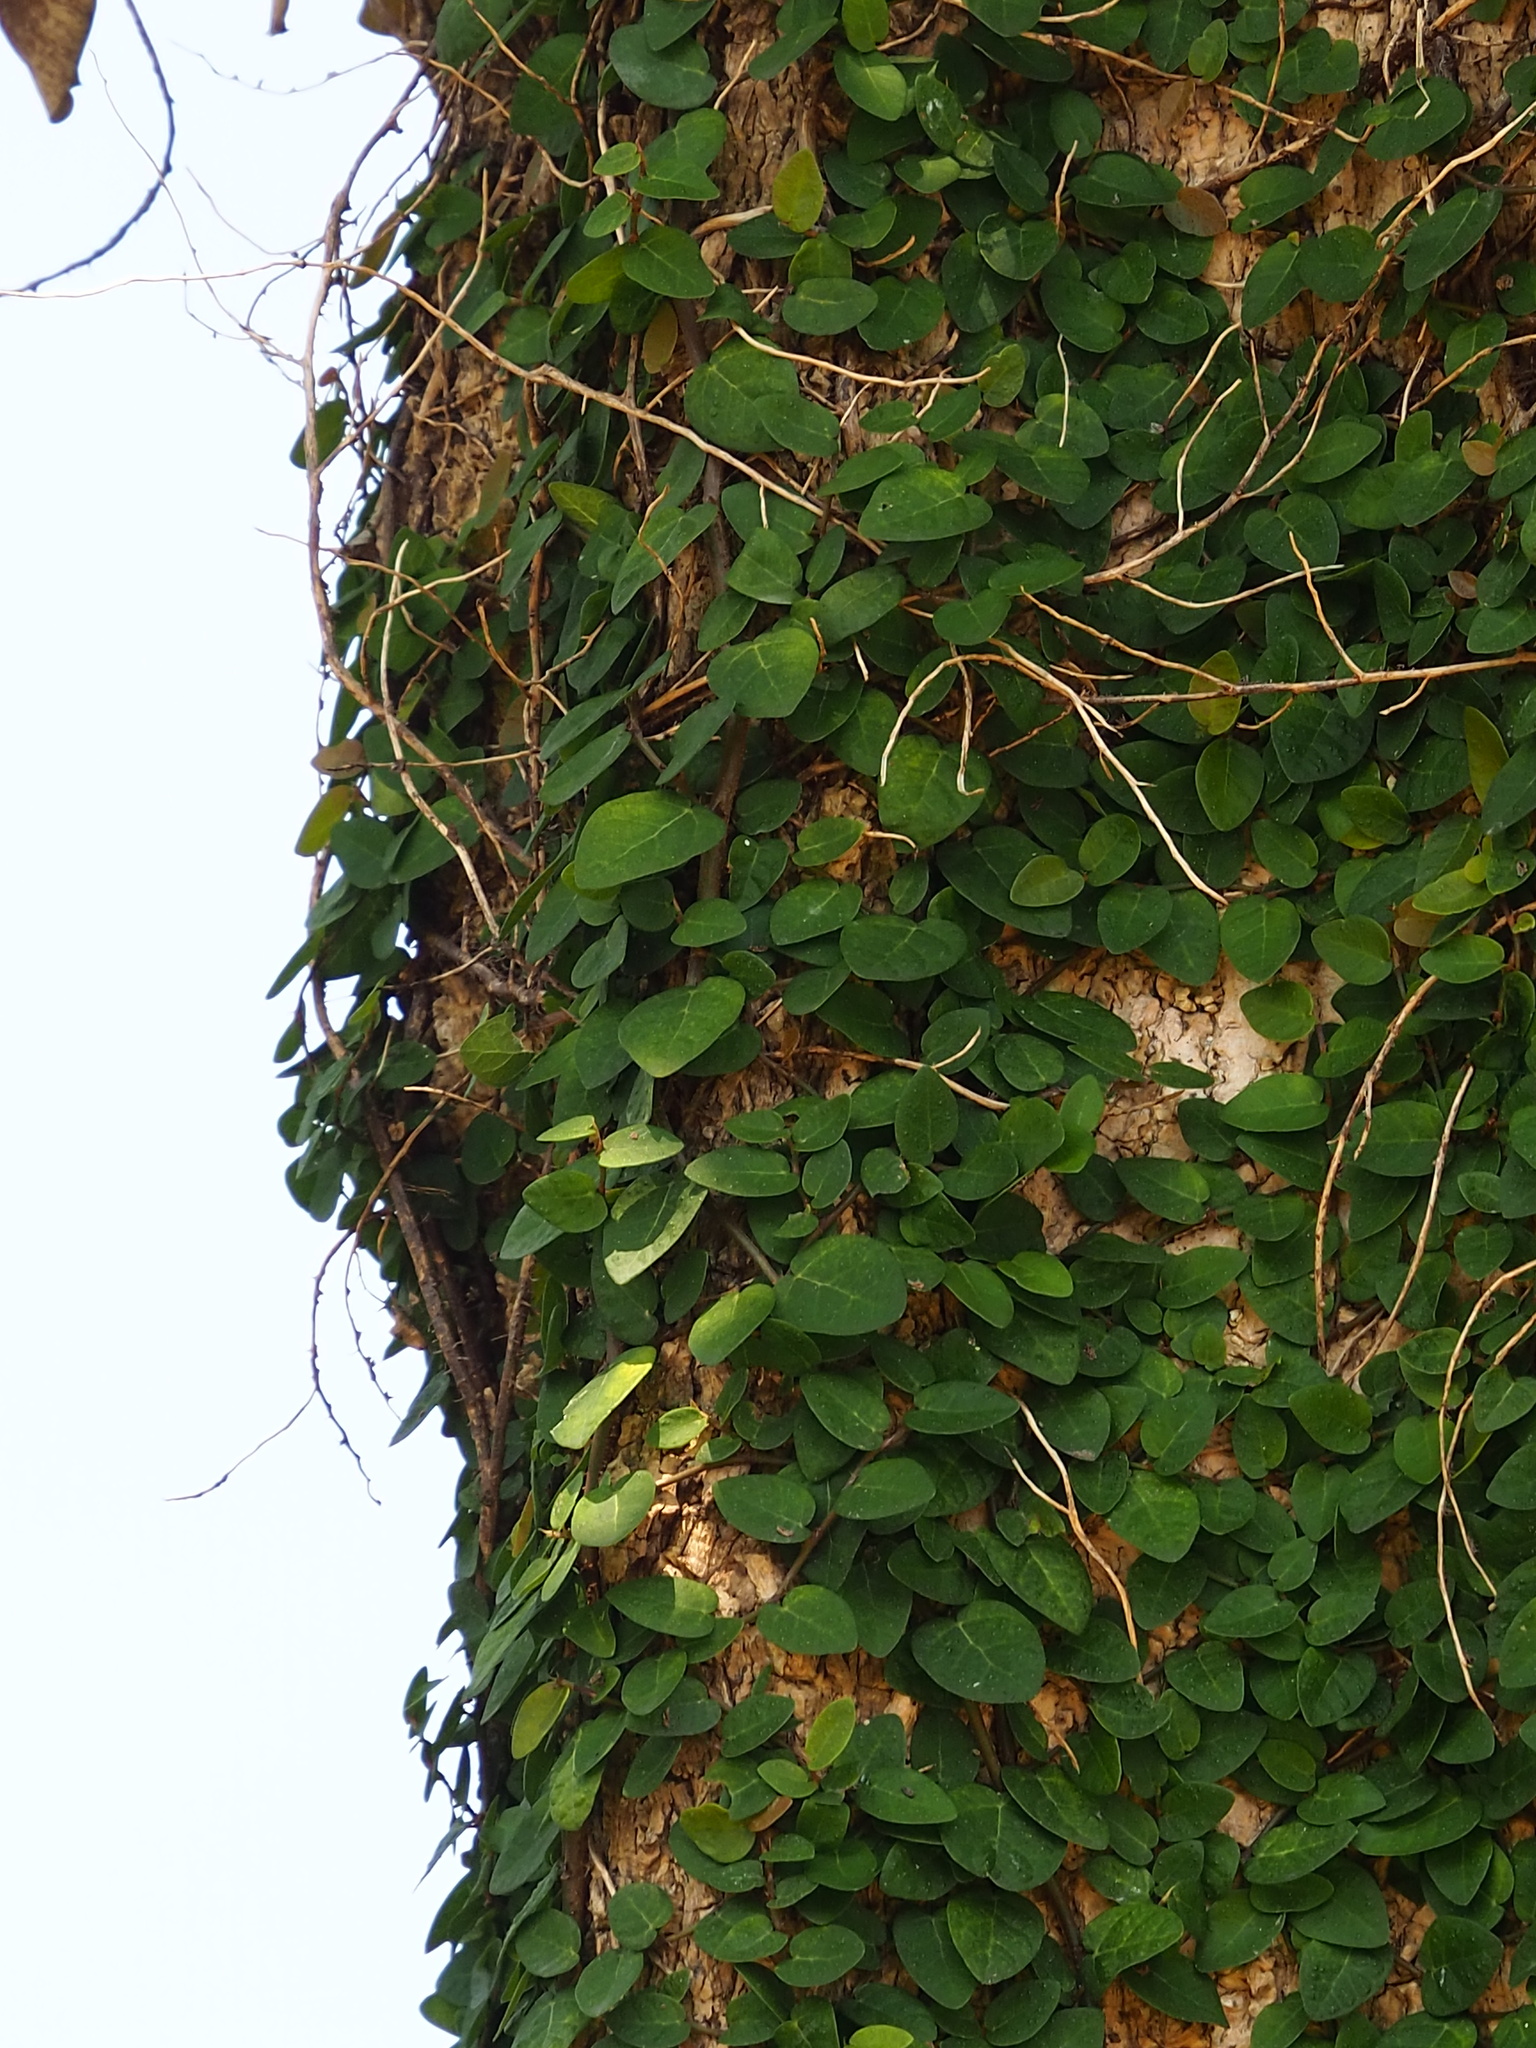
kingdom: Plantae
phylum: Tracheophyta
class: Magnoliopsida
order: Rosales
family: Moraceae
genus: Ficus
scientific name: Ficus pumila
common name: Climbingfig
